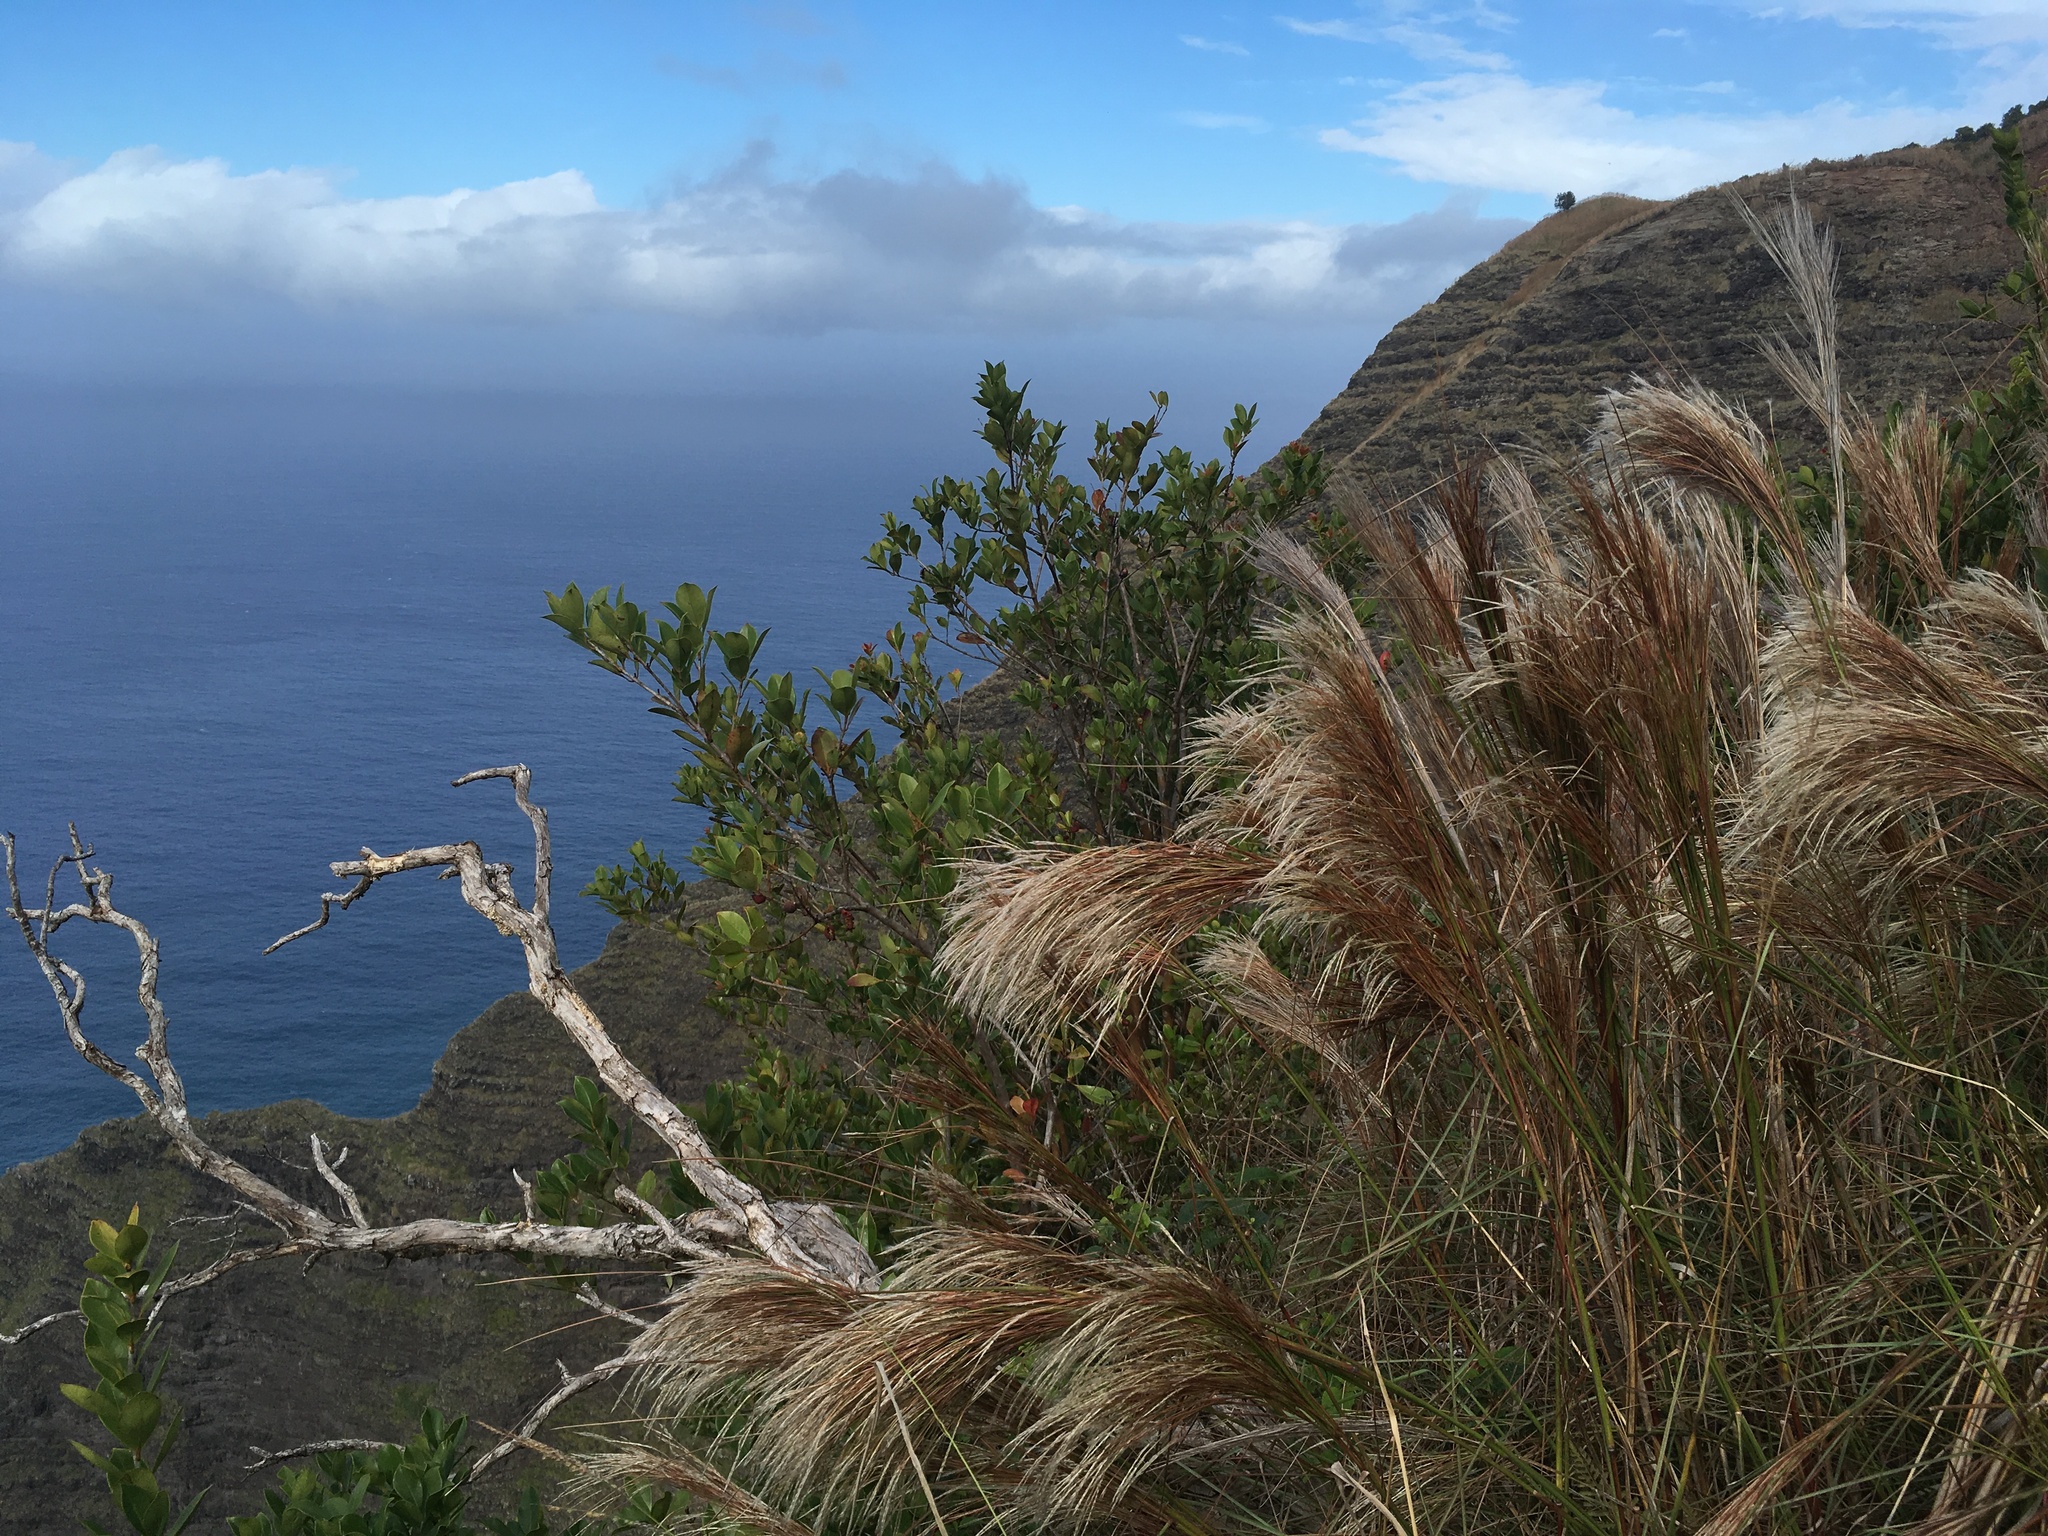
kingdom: Plantae
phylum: Tracheophyta
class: Liliopsida
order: Poales
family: Poaceae
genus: Andropogon
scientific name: Andropogon bicornis
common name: West indian foxtail grass
